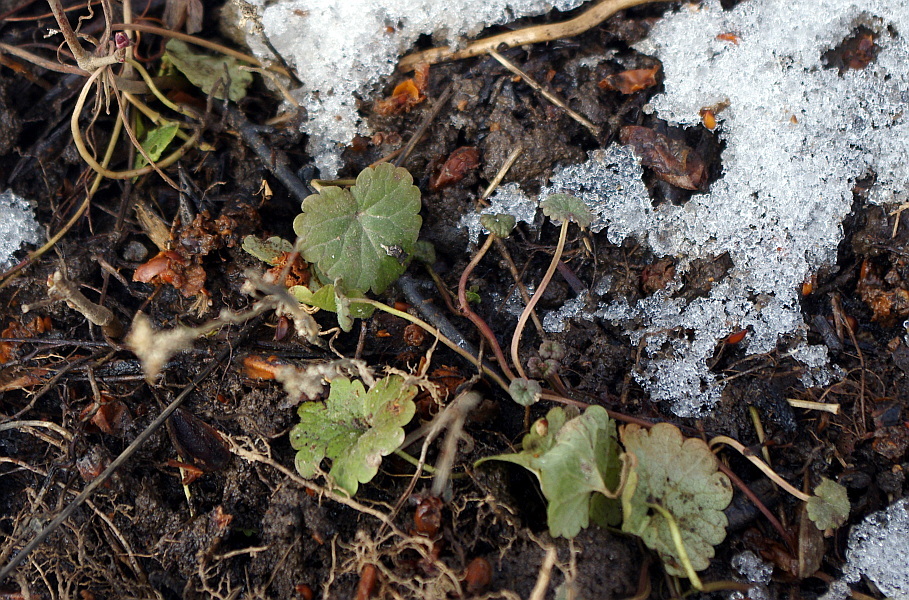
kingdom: Plantae
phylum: Tracheophyta
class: Magnoliopsida
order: Lamiales
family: Lamiaceae
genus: Glechoma
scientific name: Glechoma hederacea
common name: Ground ivy
